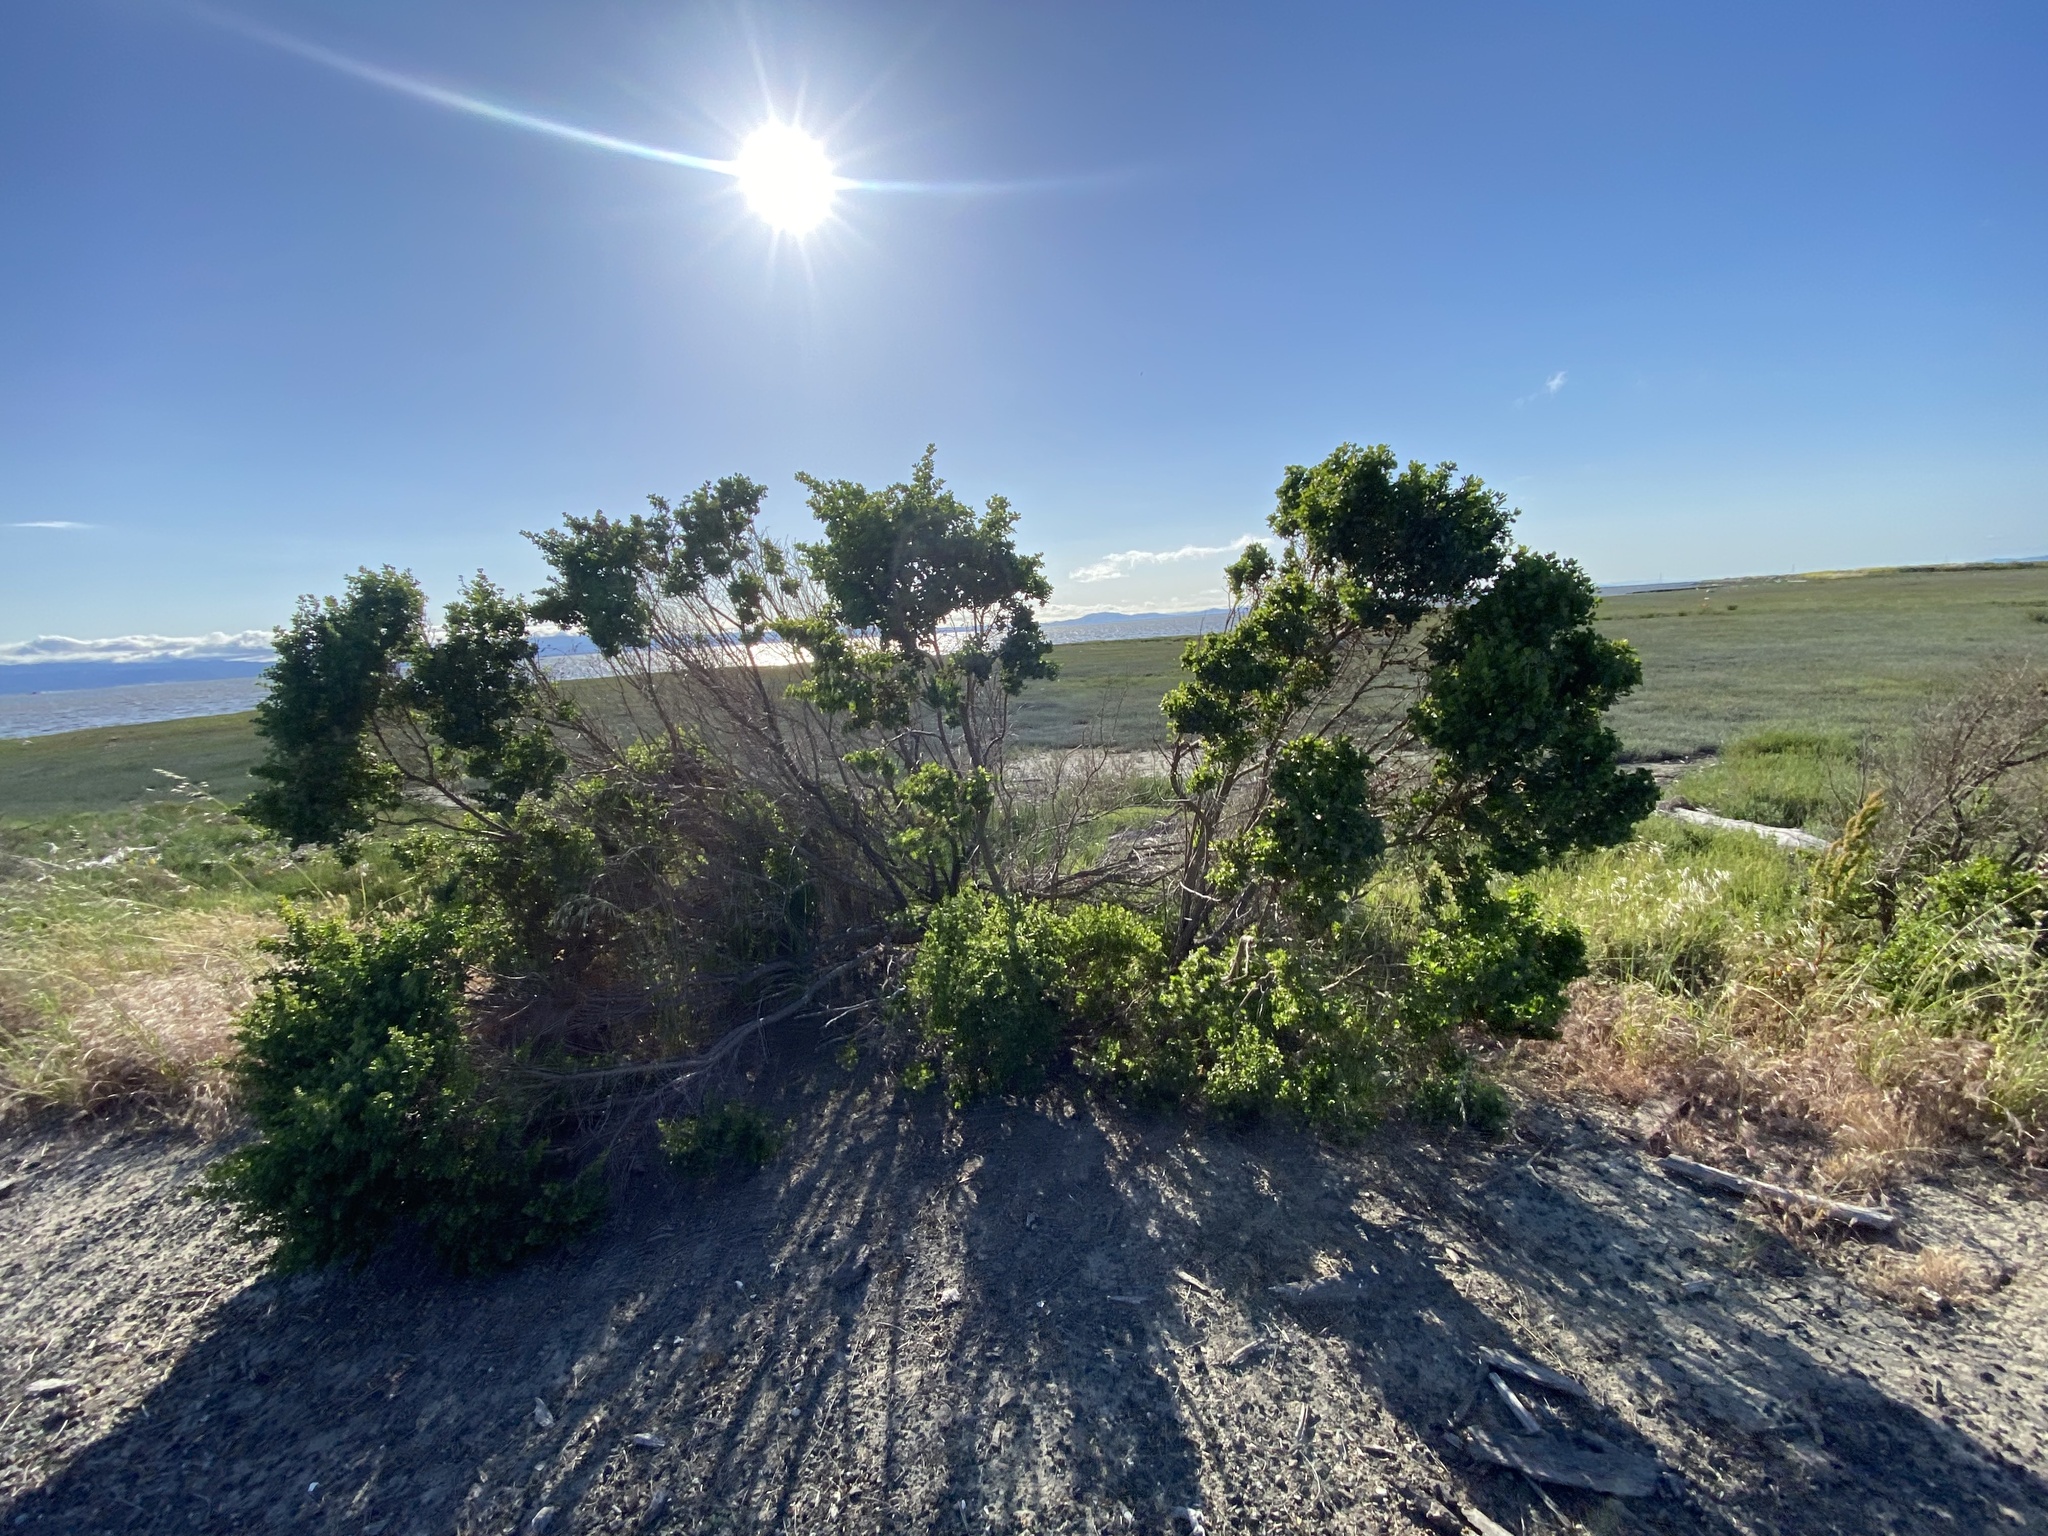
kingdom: Plantae
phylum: Tracheophyta
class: Magnoliopsida
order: Asterales
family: Asteraceae
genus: Baccharis
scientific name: Baccharis pilularis
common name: Coyotebrush
